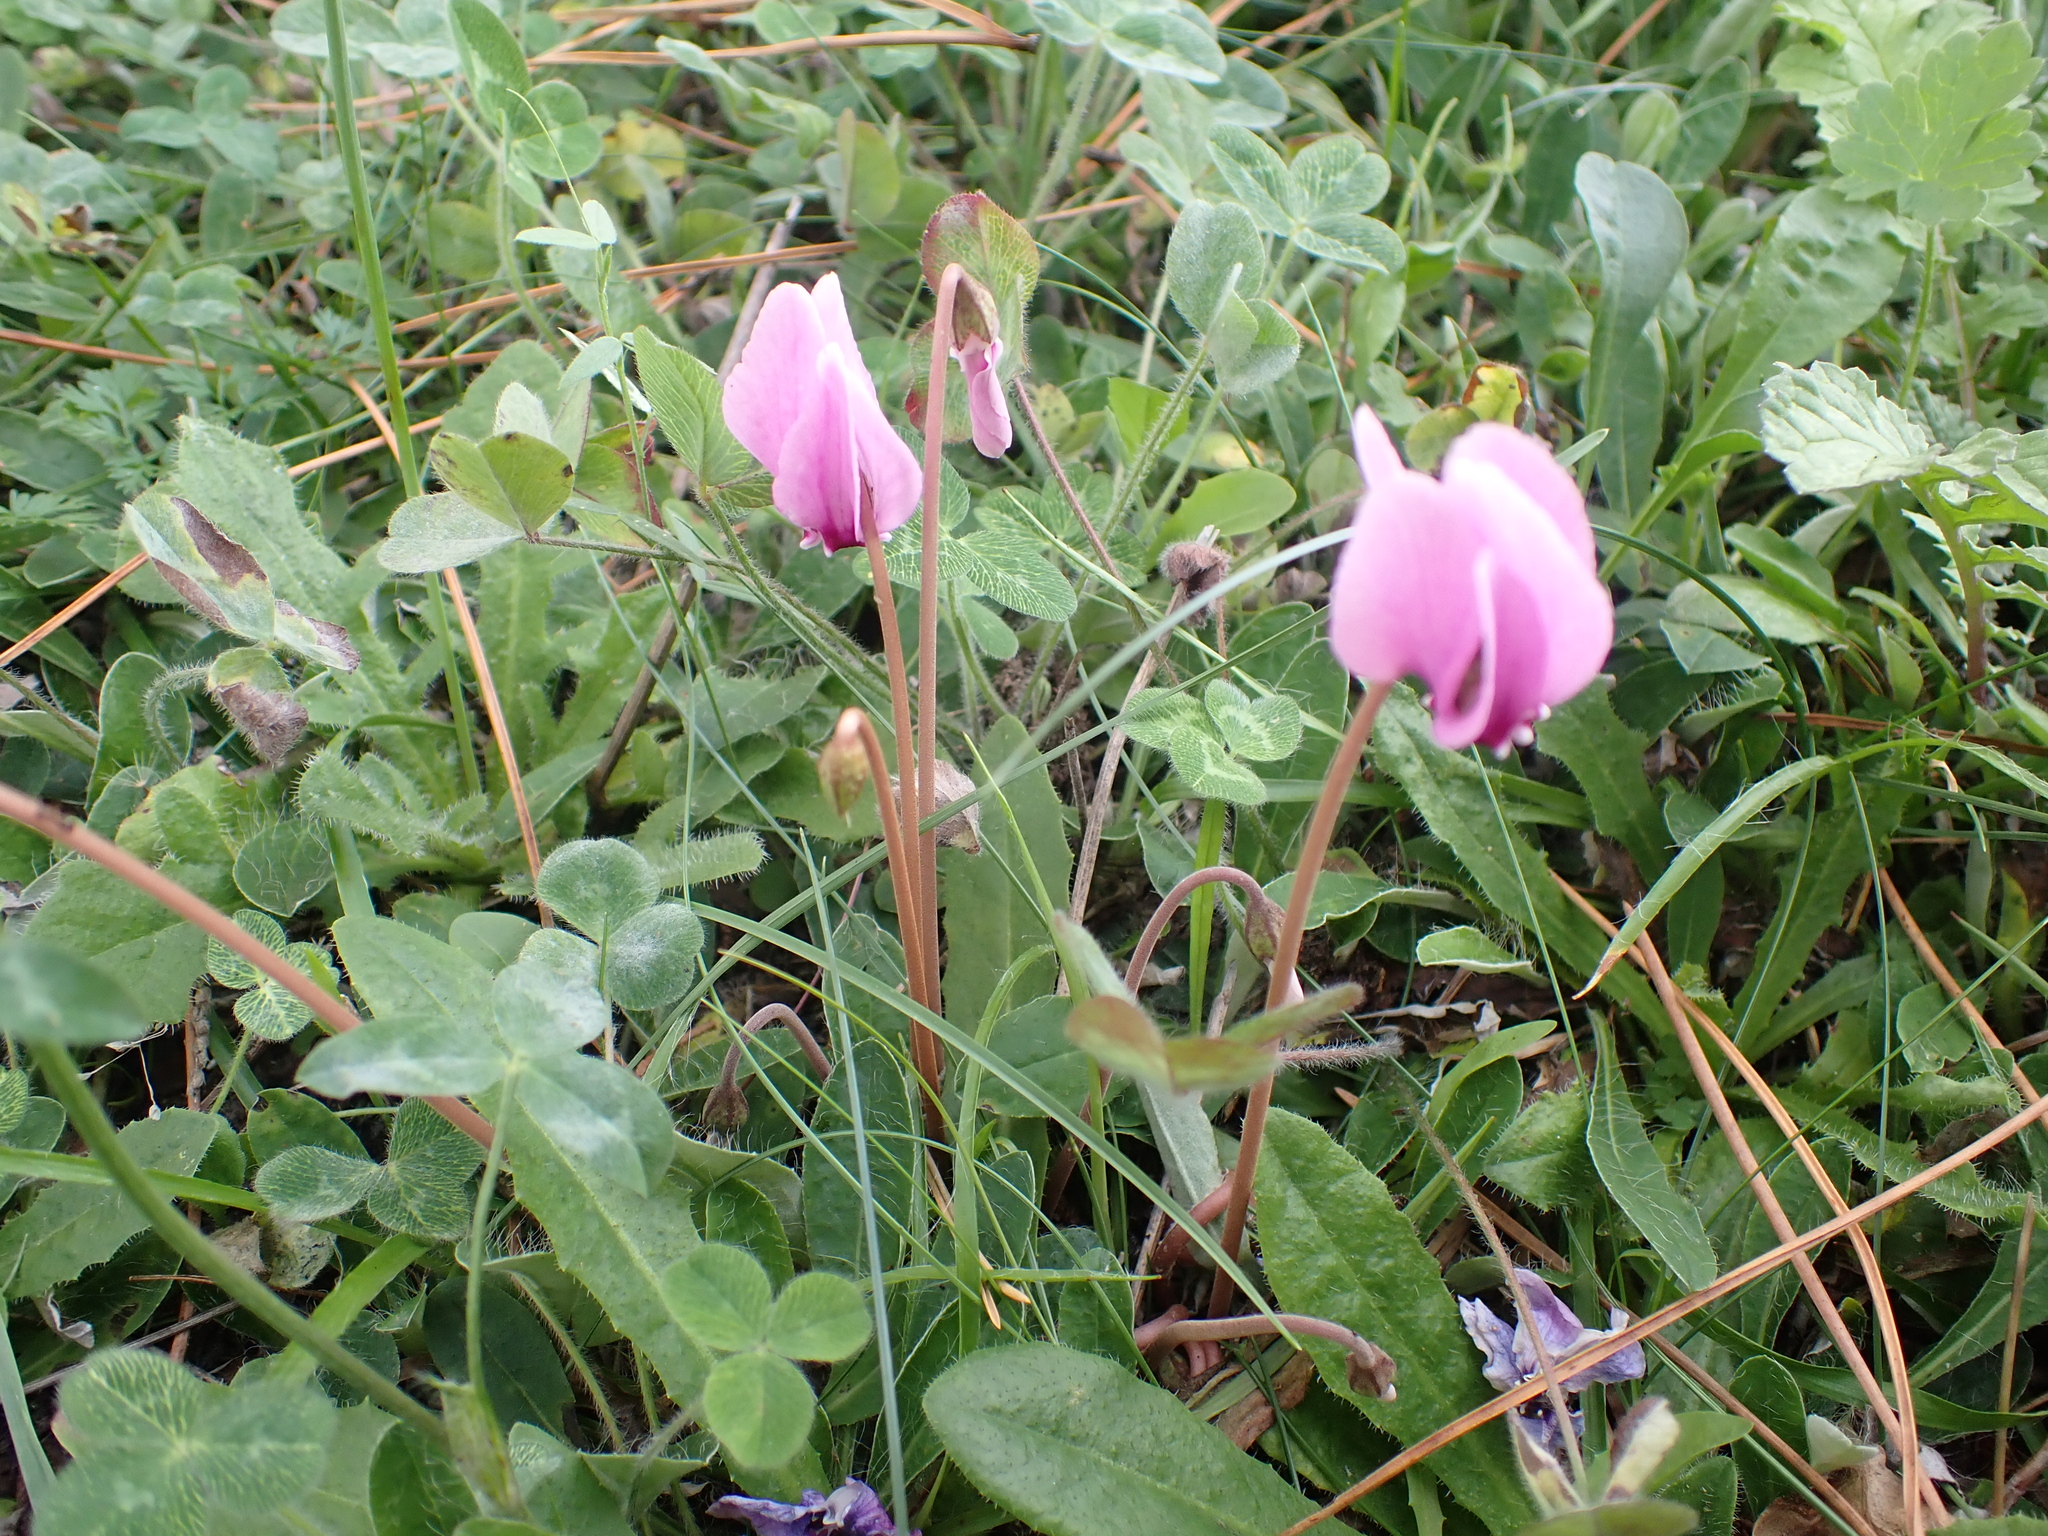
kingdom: Plantae
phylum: Tracheophyta
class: Magnoliopsida
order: Ericales
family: Primulaceae
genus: Cyclamen
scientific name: Cyclamen hederifolium
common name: Sowbread
